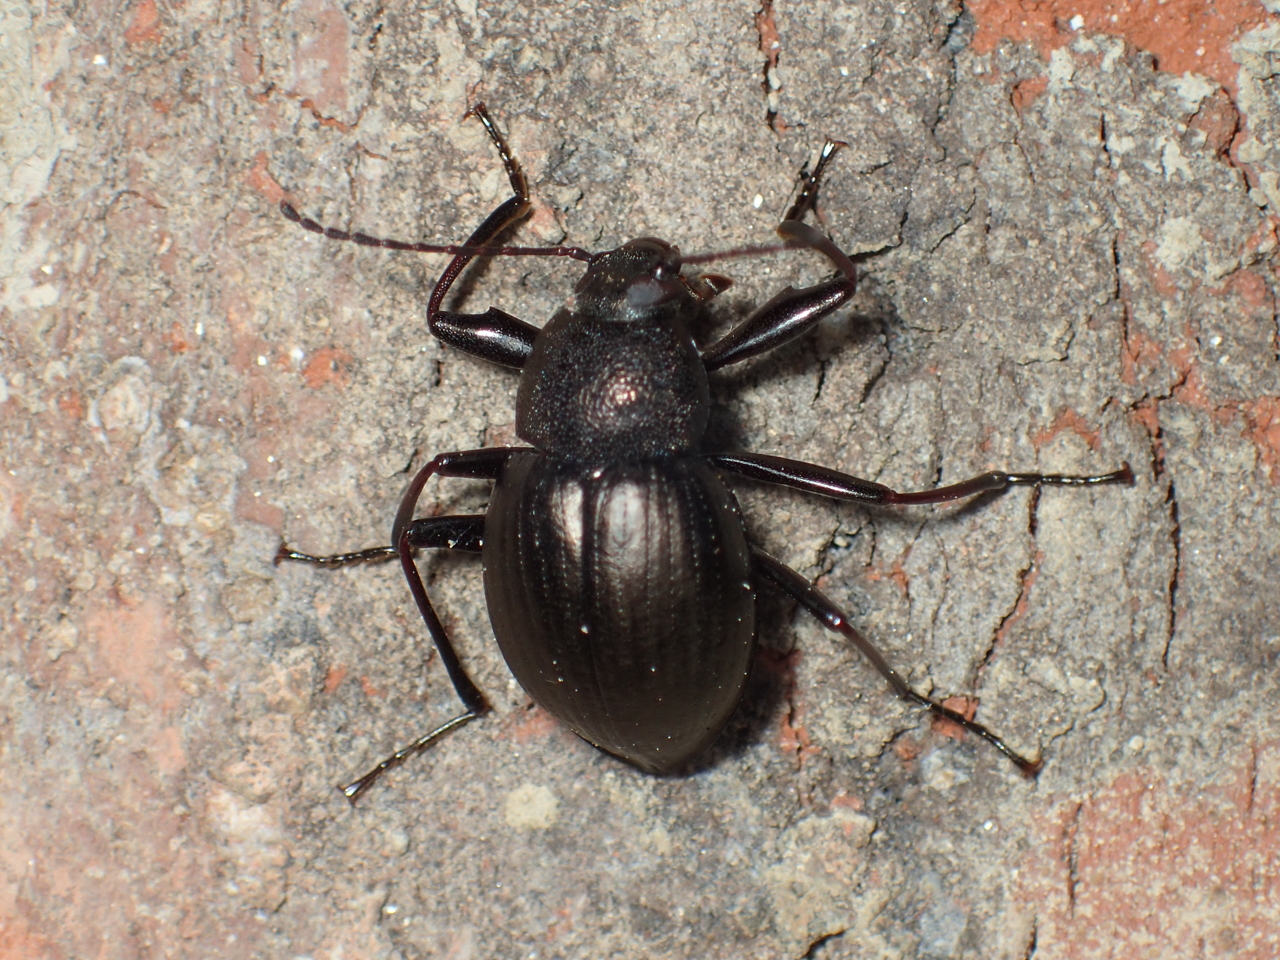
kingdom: Animalia
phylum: Arthropoda
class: Insecta
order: Coleoptera
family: Tenebrionidae
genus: Meracantha
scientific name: Meracantha contracta
